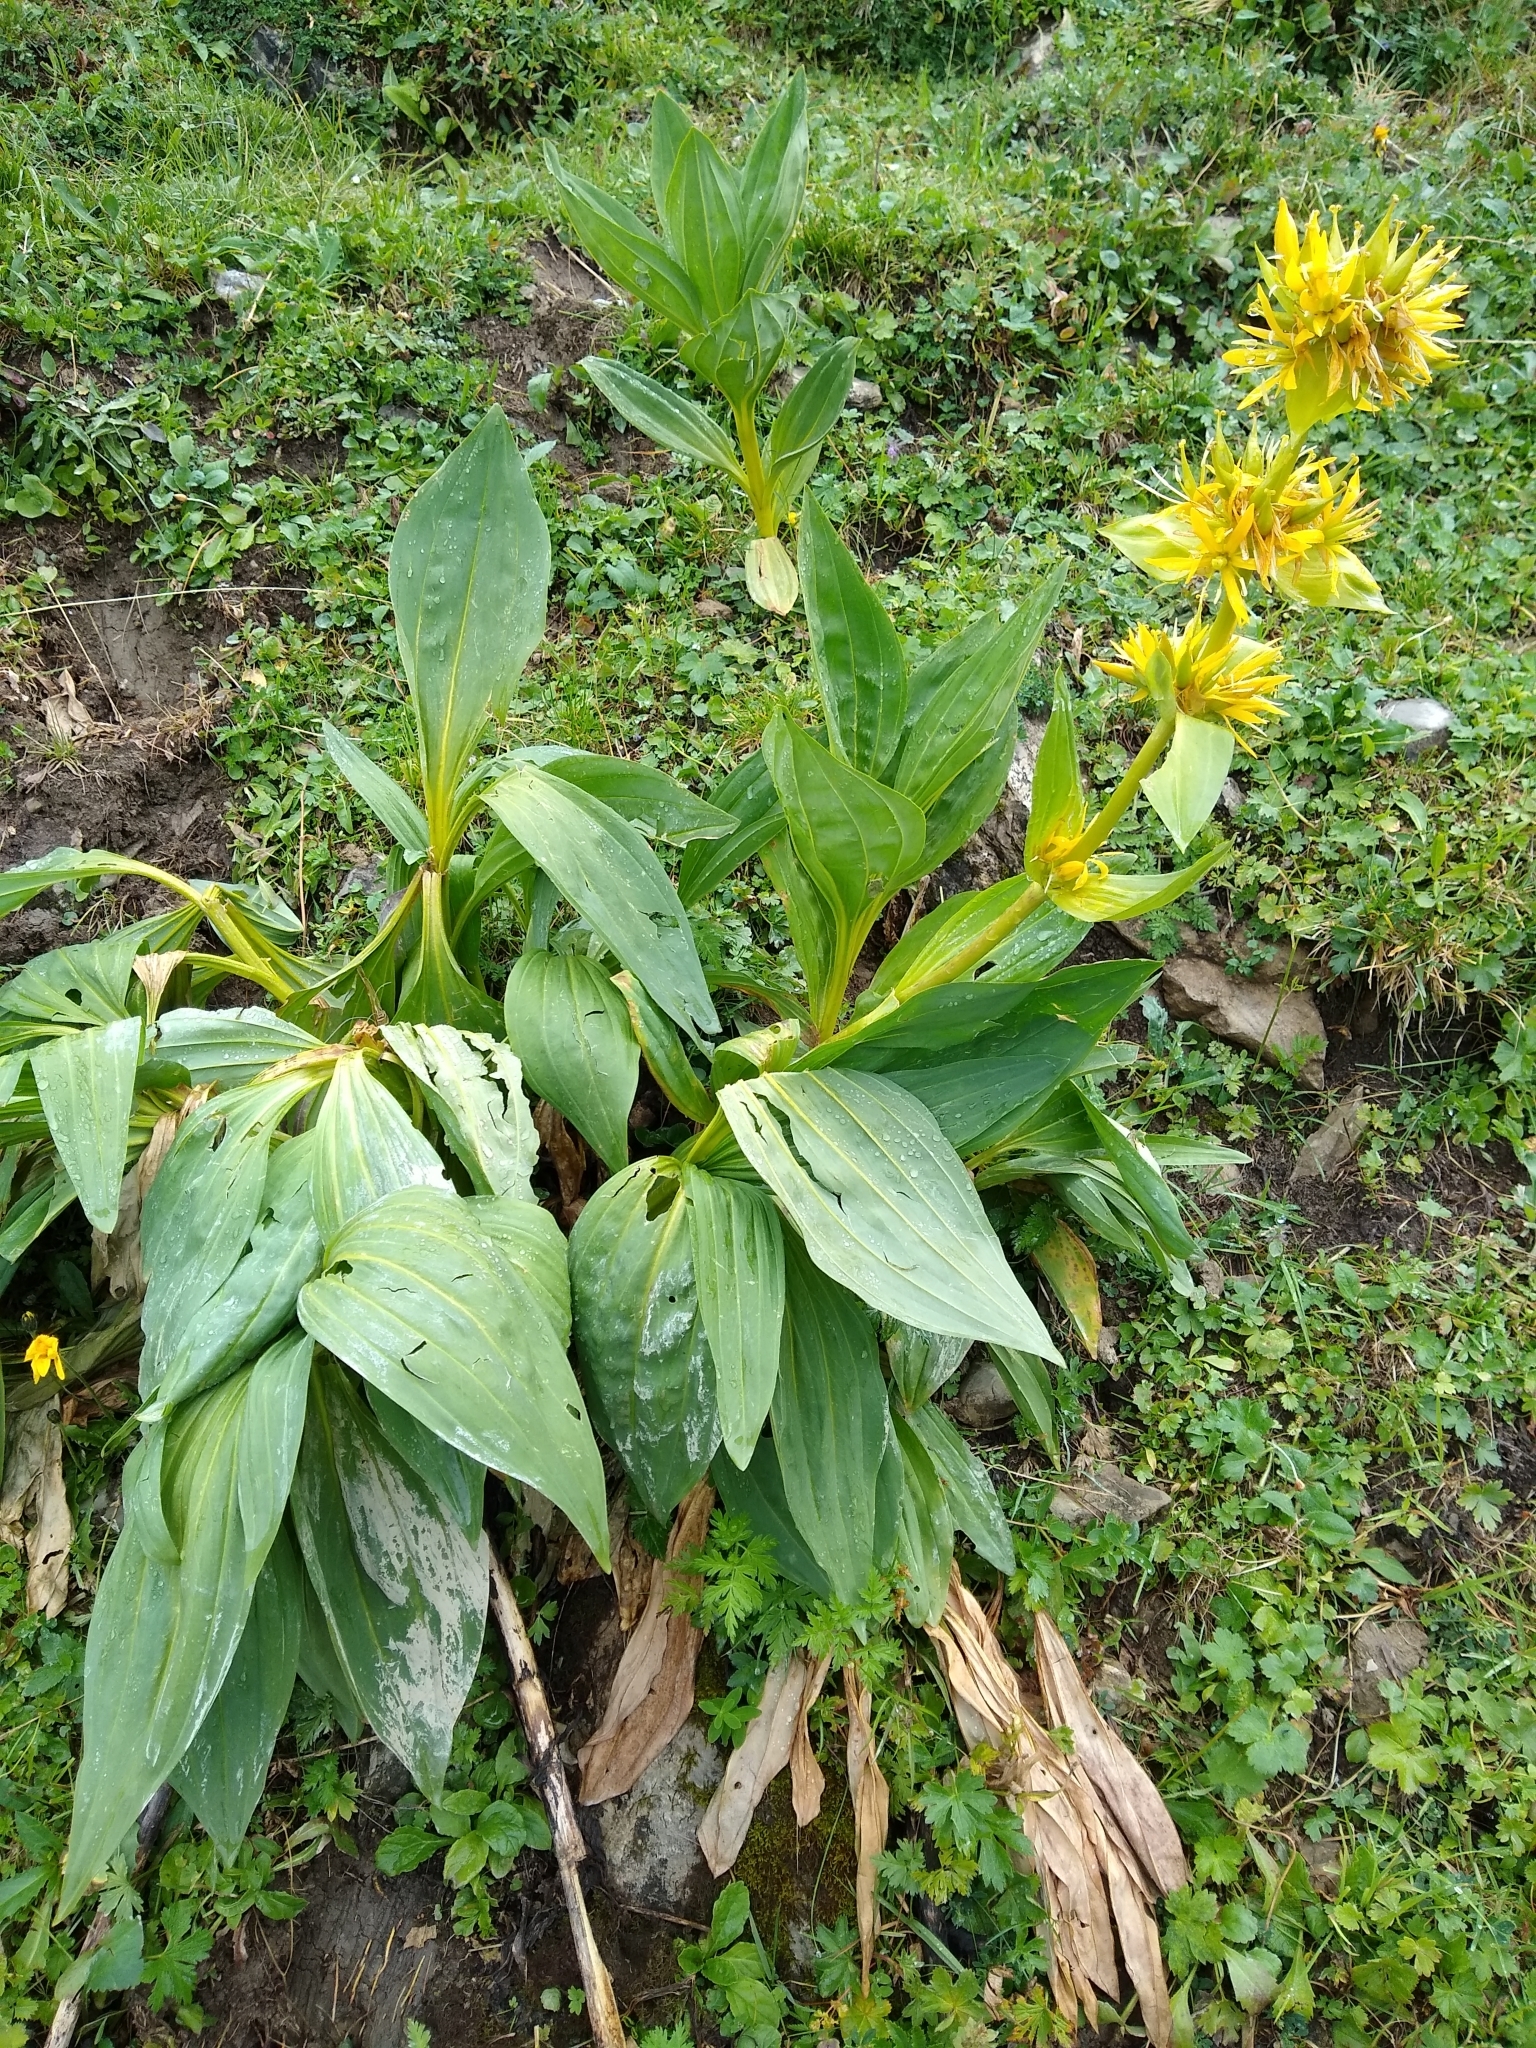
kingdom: Plantae
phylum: Tracheophyta
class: Magnoliopsida
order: Gentianales
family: Gentianaceae
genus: Gentiana
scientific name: Gentiana lutea
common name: Great yellow gentian
